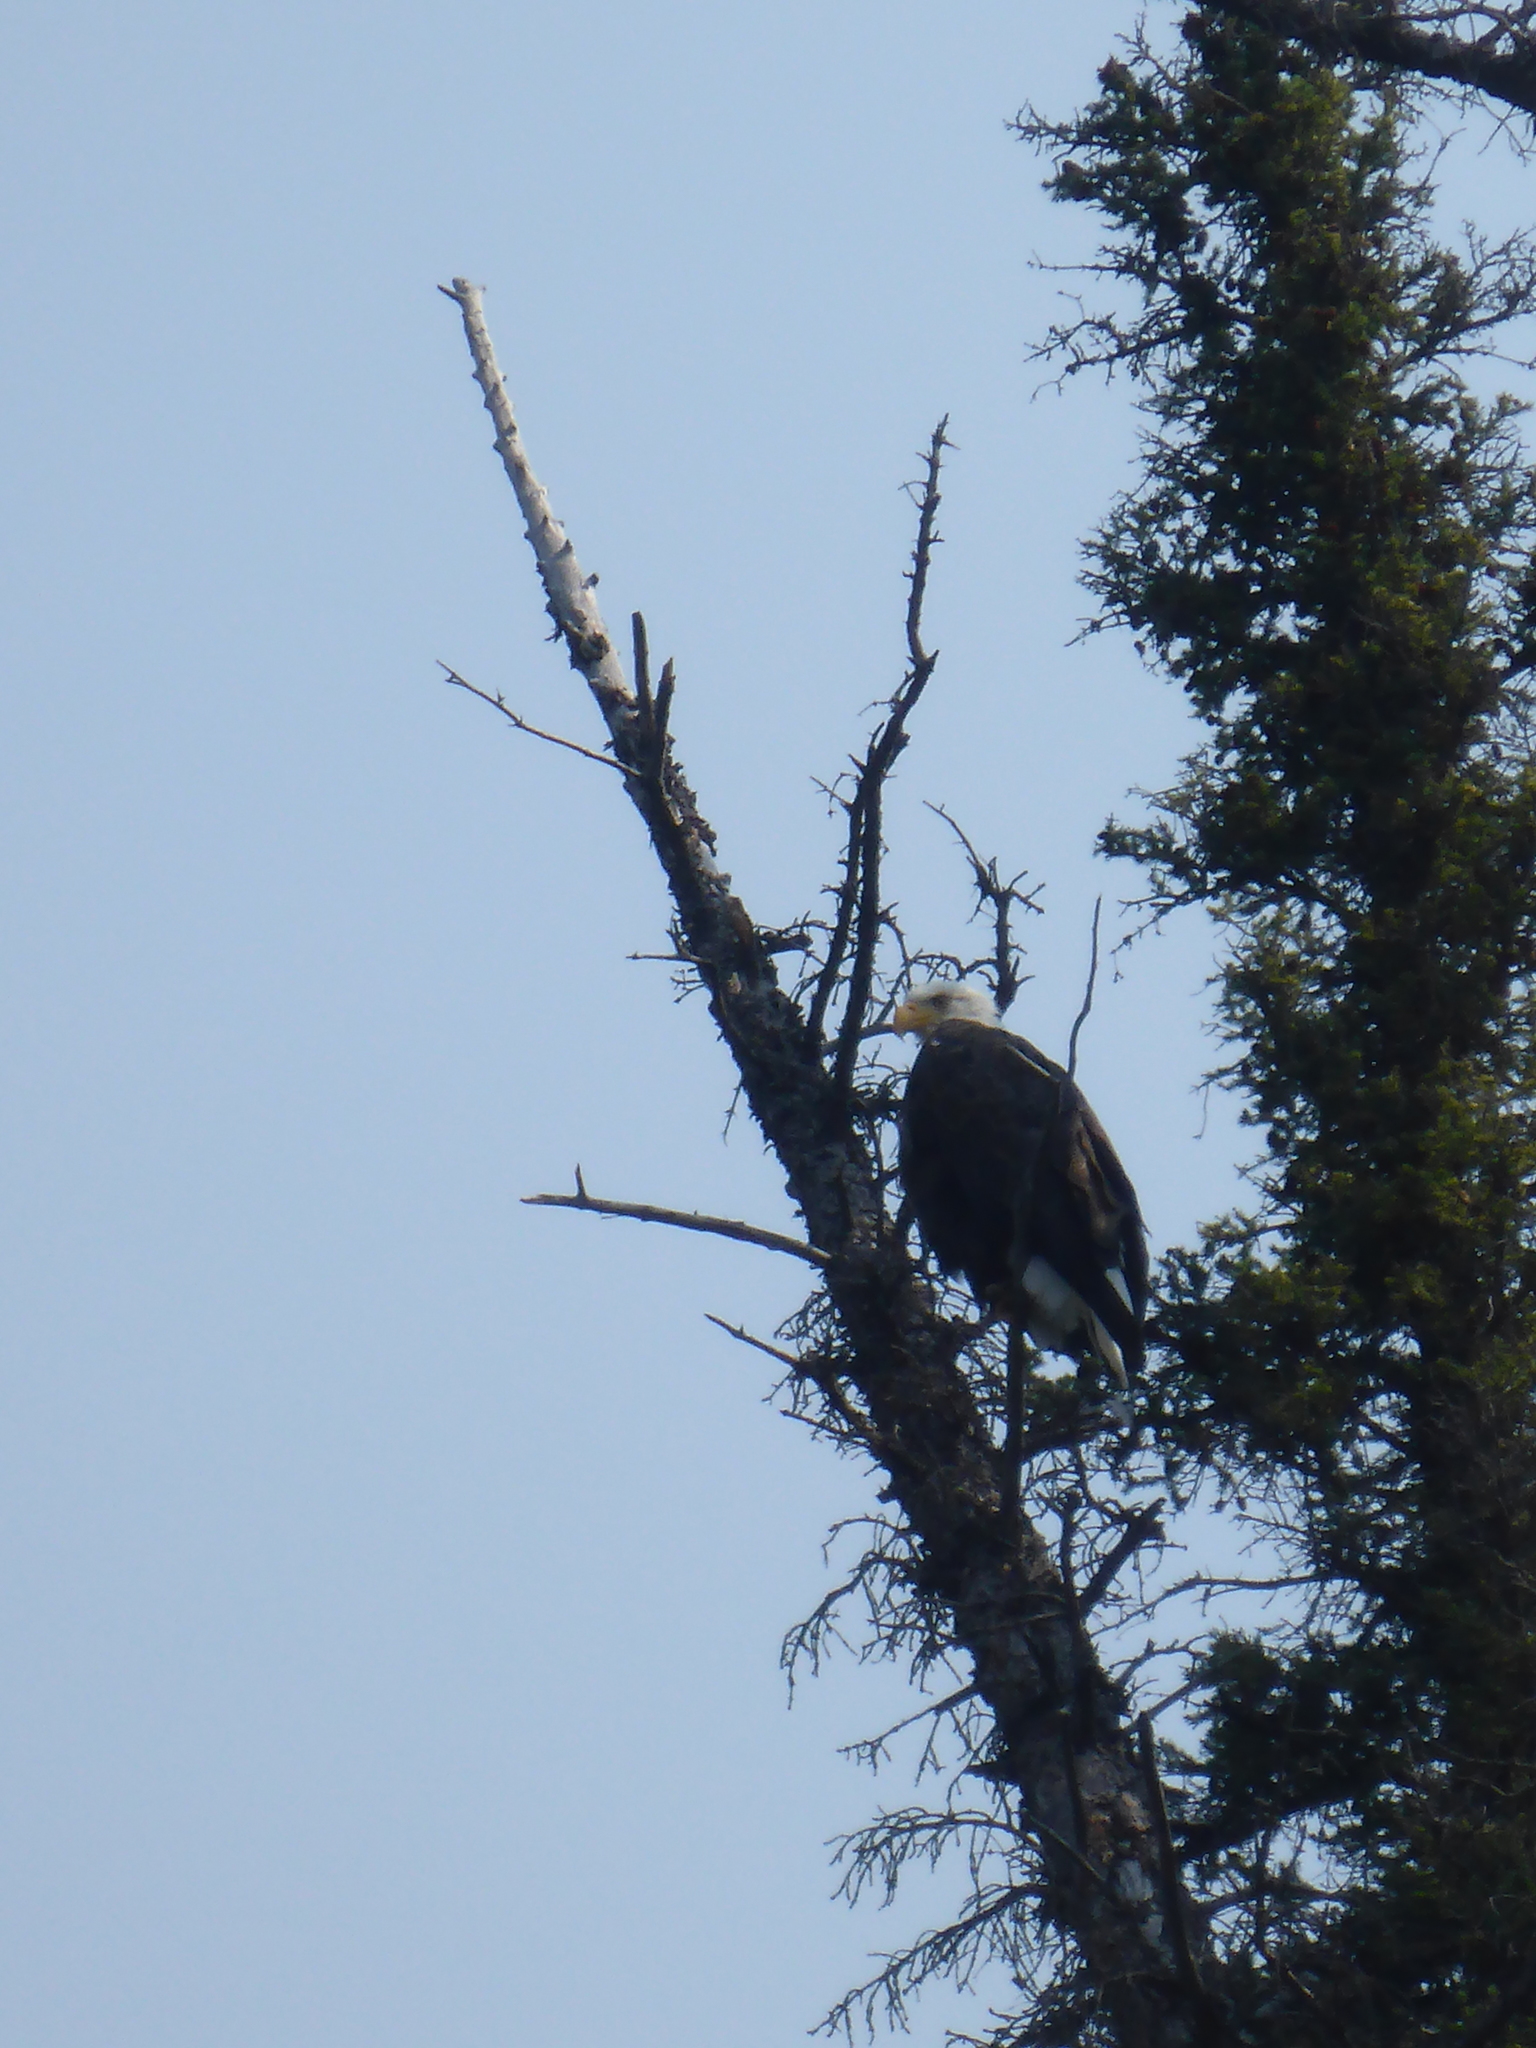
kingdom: Animalia
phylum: Chordata
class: Aves
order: Accipitriformes
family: Accipitridae
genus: Haliaeetus
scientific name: Haliaeetus leucocephalus
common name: Bald eagle
